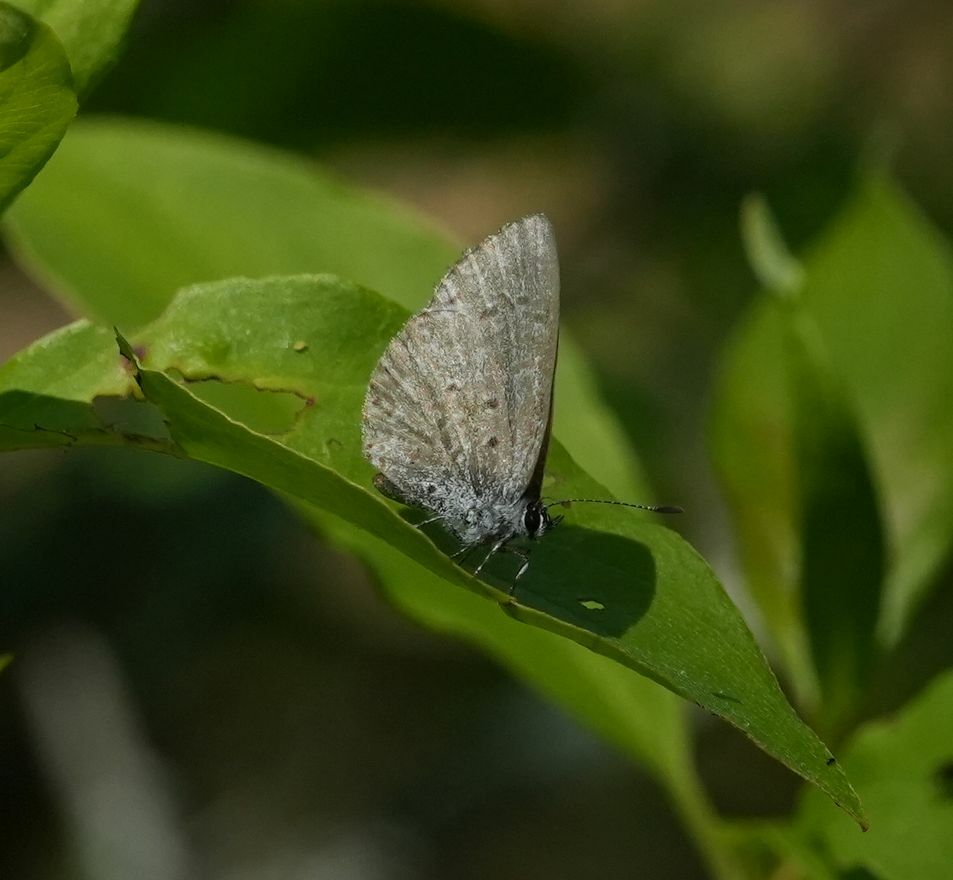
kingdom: Animalia
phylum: Arthropoda
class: Insecta
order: Lepidoptera
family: Lycaenidae
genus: Celastrina
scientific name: Celastrina lucia
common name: Lucia azure
